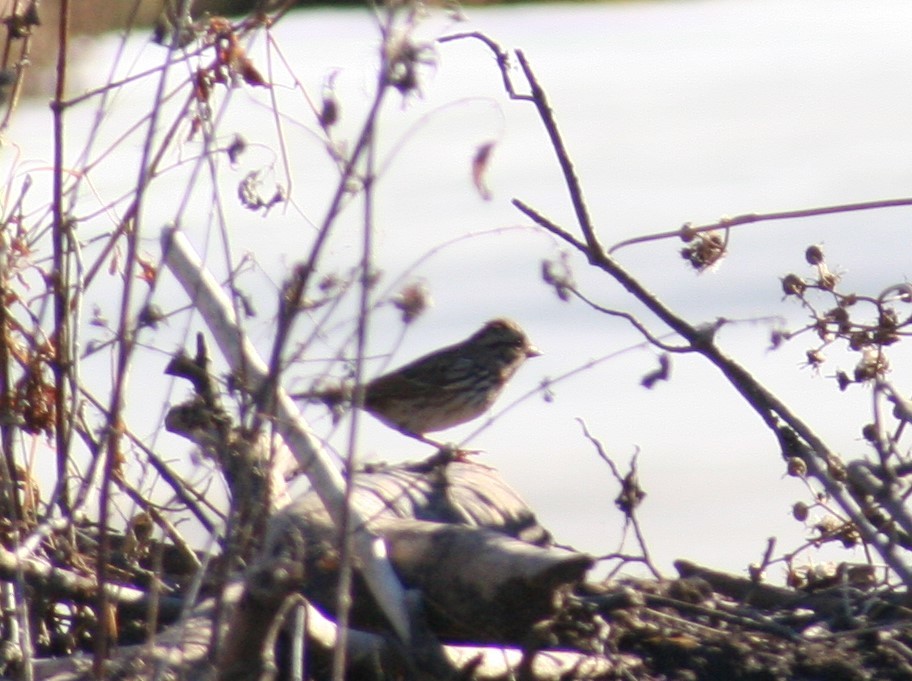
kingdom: Animalia
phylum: Chordata
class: Aves
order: Passeriformes
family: Passerellidae
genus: Melospiza
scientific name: Melospiza melodia
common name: Song sparrow
